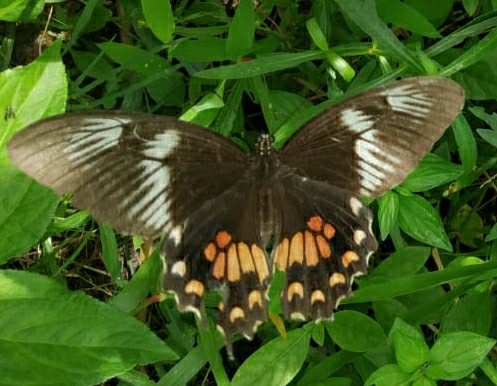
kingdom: Animalia
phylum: Arthropoda
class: Insecta
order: Lepidoptera
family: Papilionidae
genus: Papilio
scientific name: Papilio polytes
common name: Common mormon
